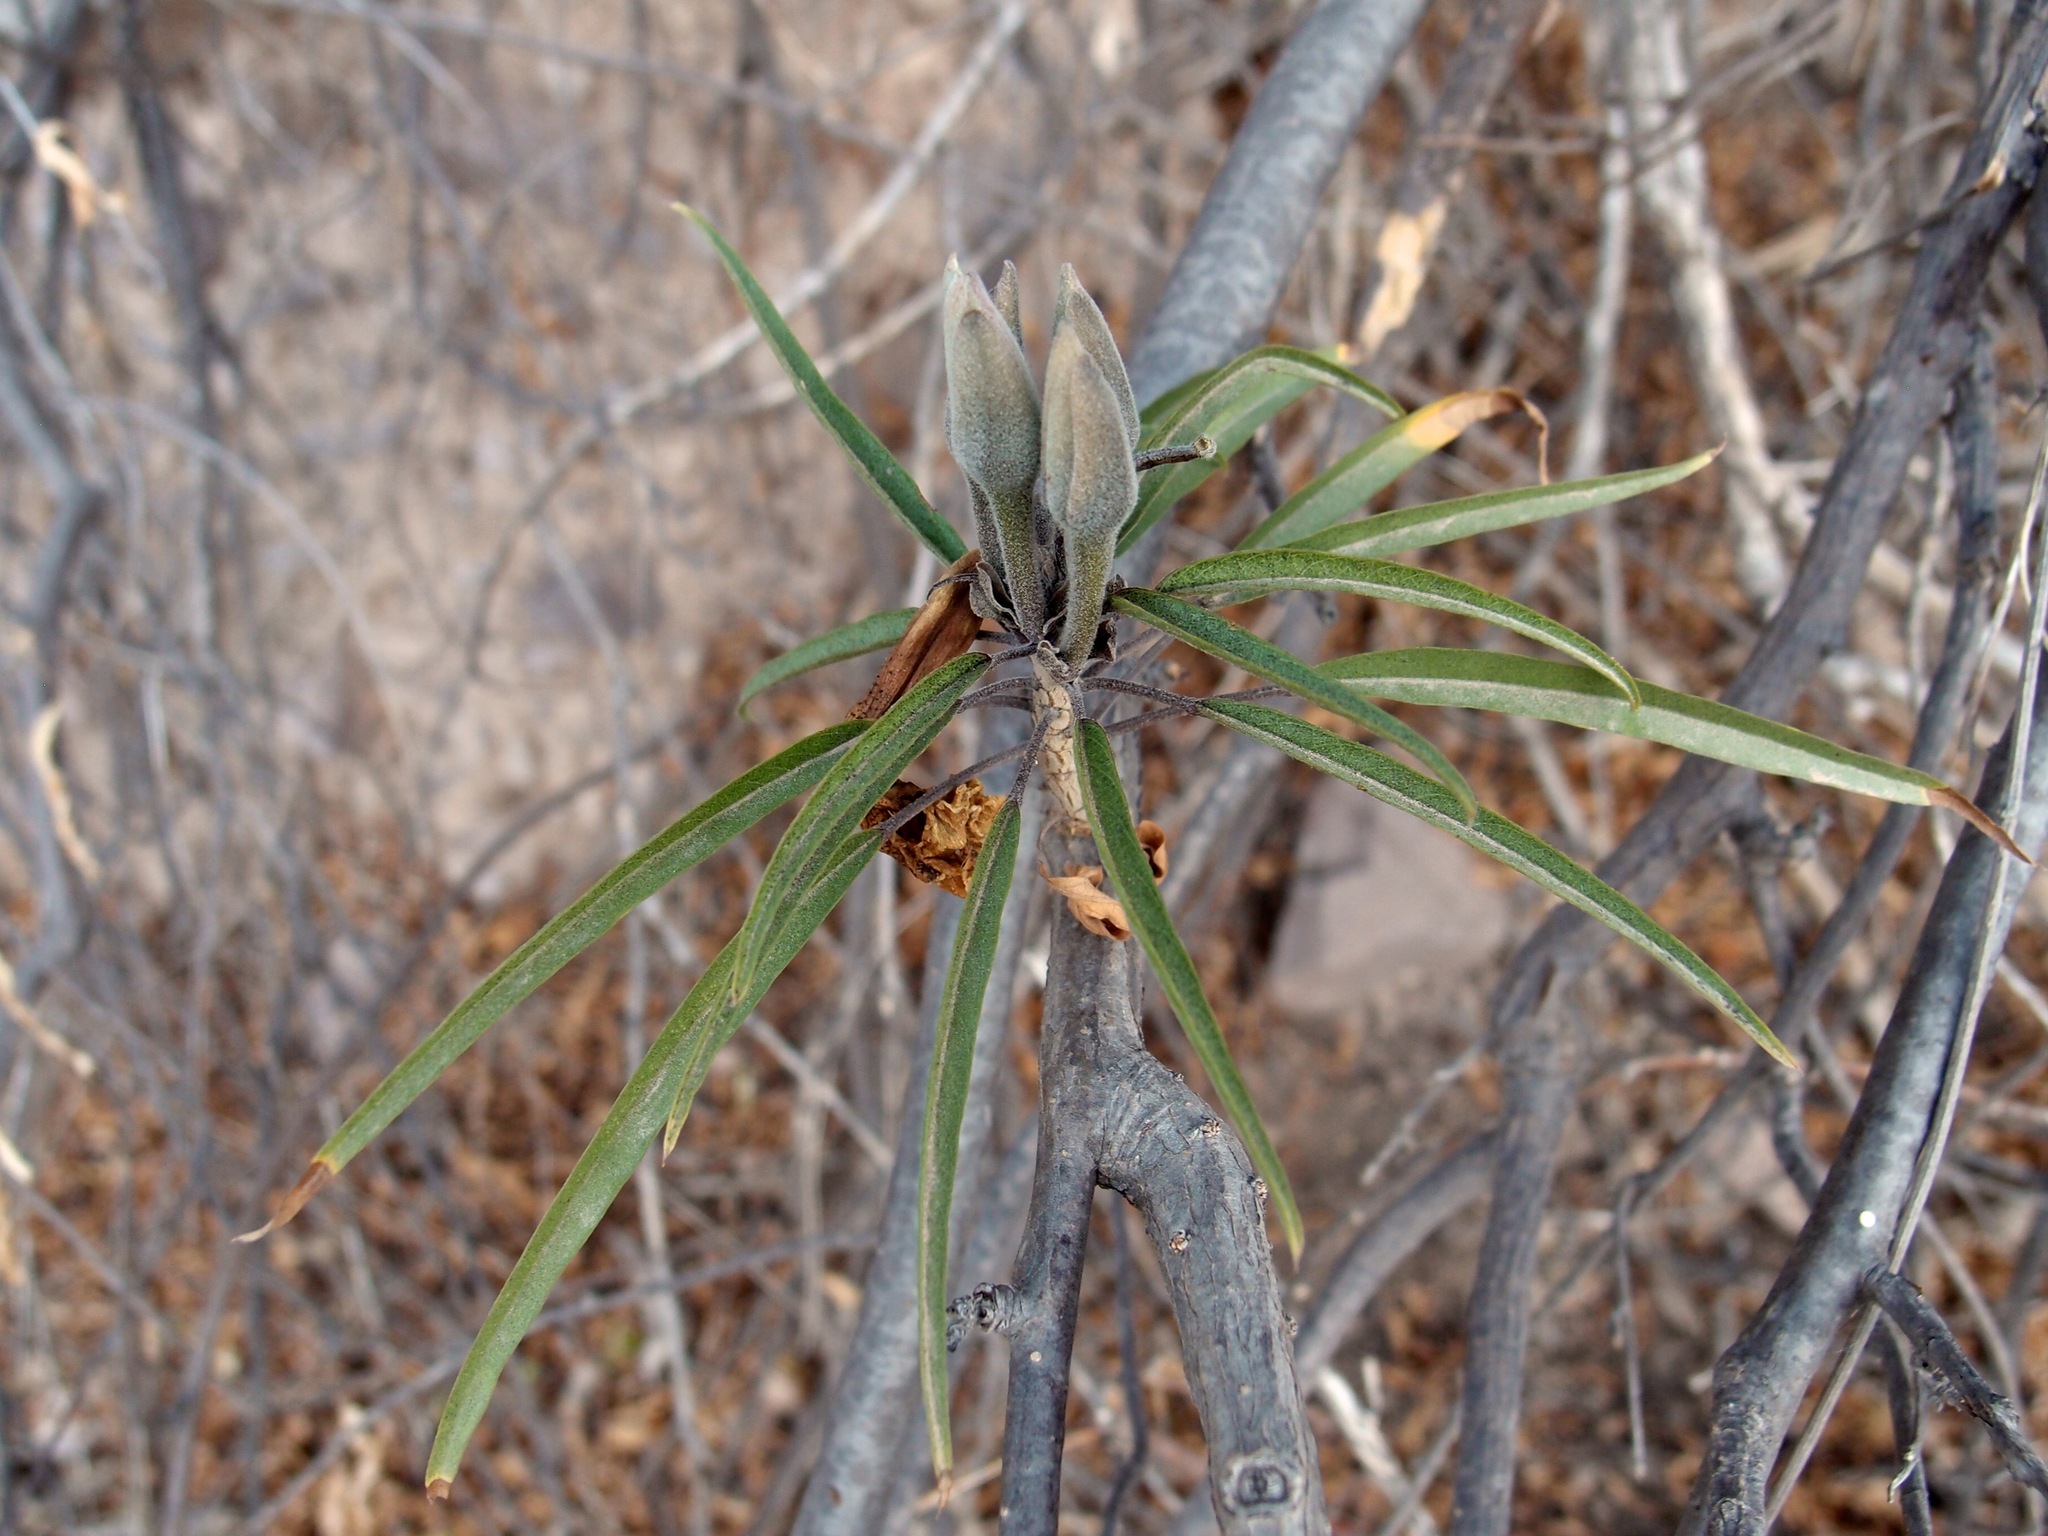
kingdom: Plantae
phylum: Tracheophyta
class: Magnoliopsida
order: Solanales
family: Convolvulaceae
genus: Ipomoea
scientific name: Ipomoea seaania
